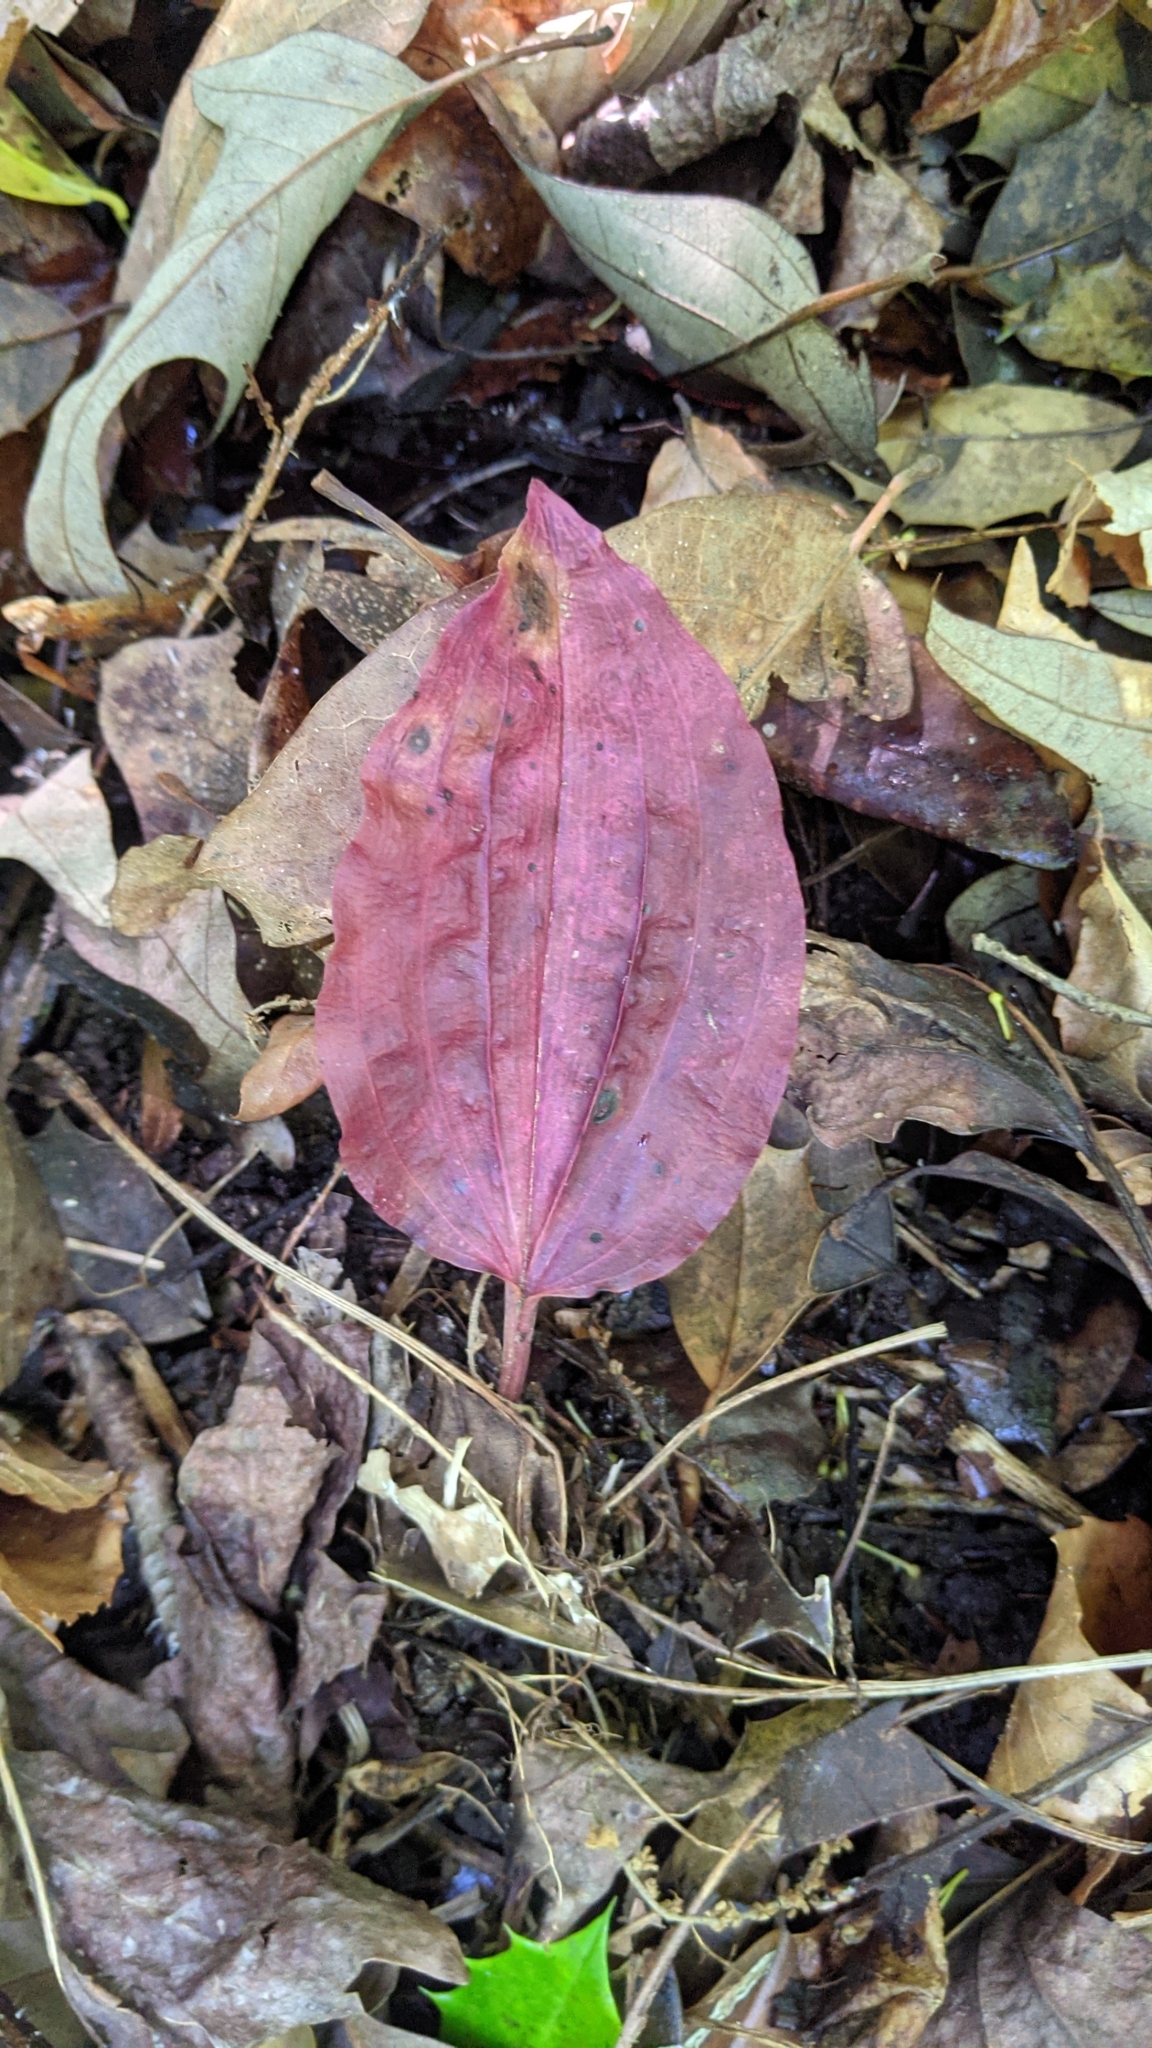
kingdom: Plantae
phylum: Tracheophyta
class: Liliopsida
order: Asparagales
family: Orchidaceae
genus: Tipularia
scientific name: Tipularia discolor
